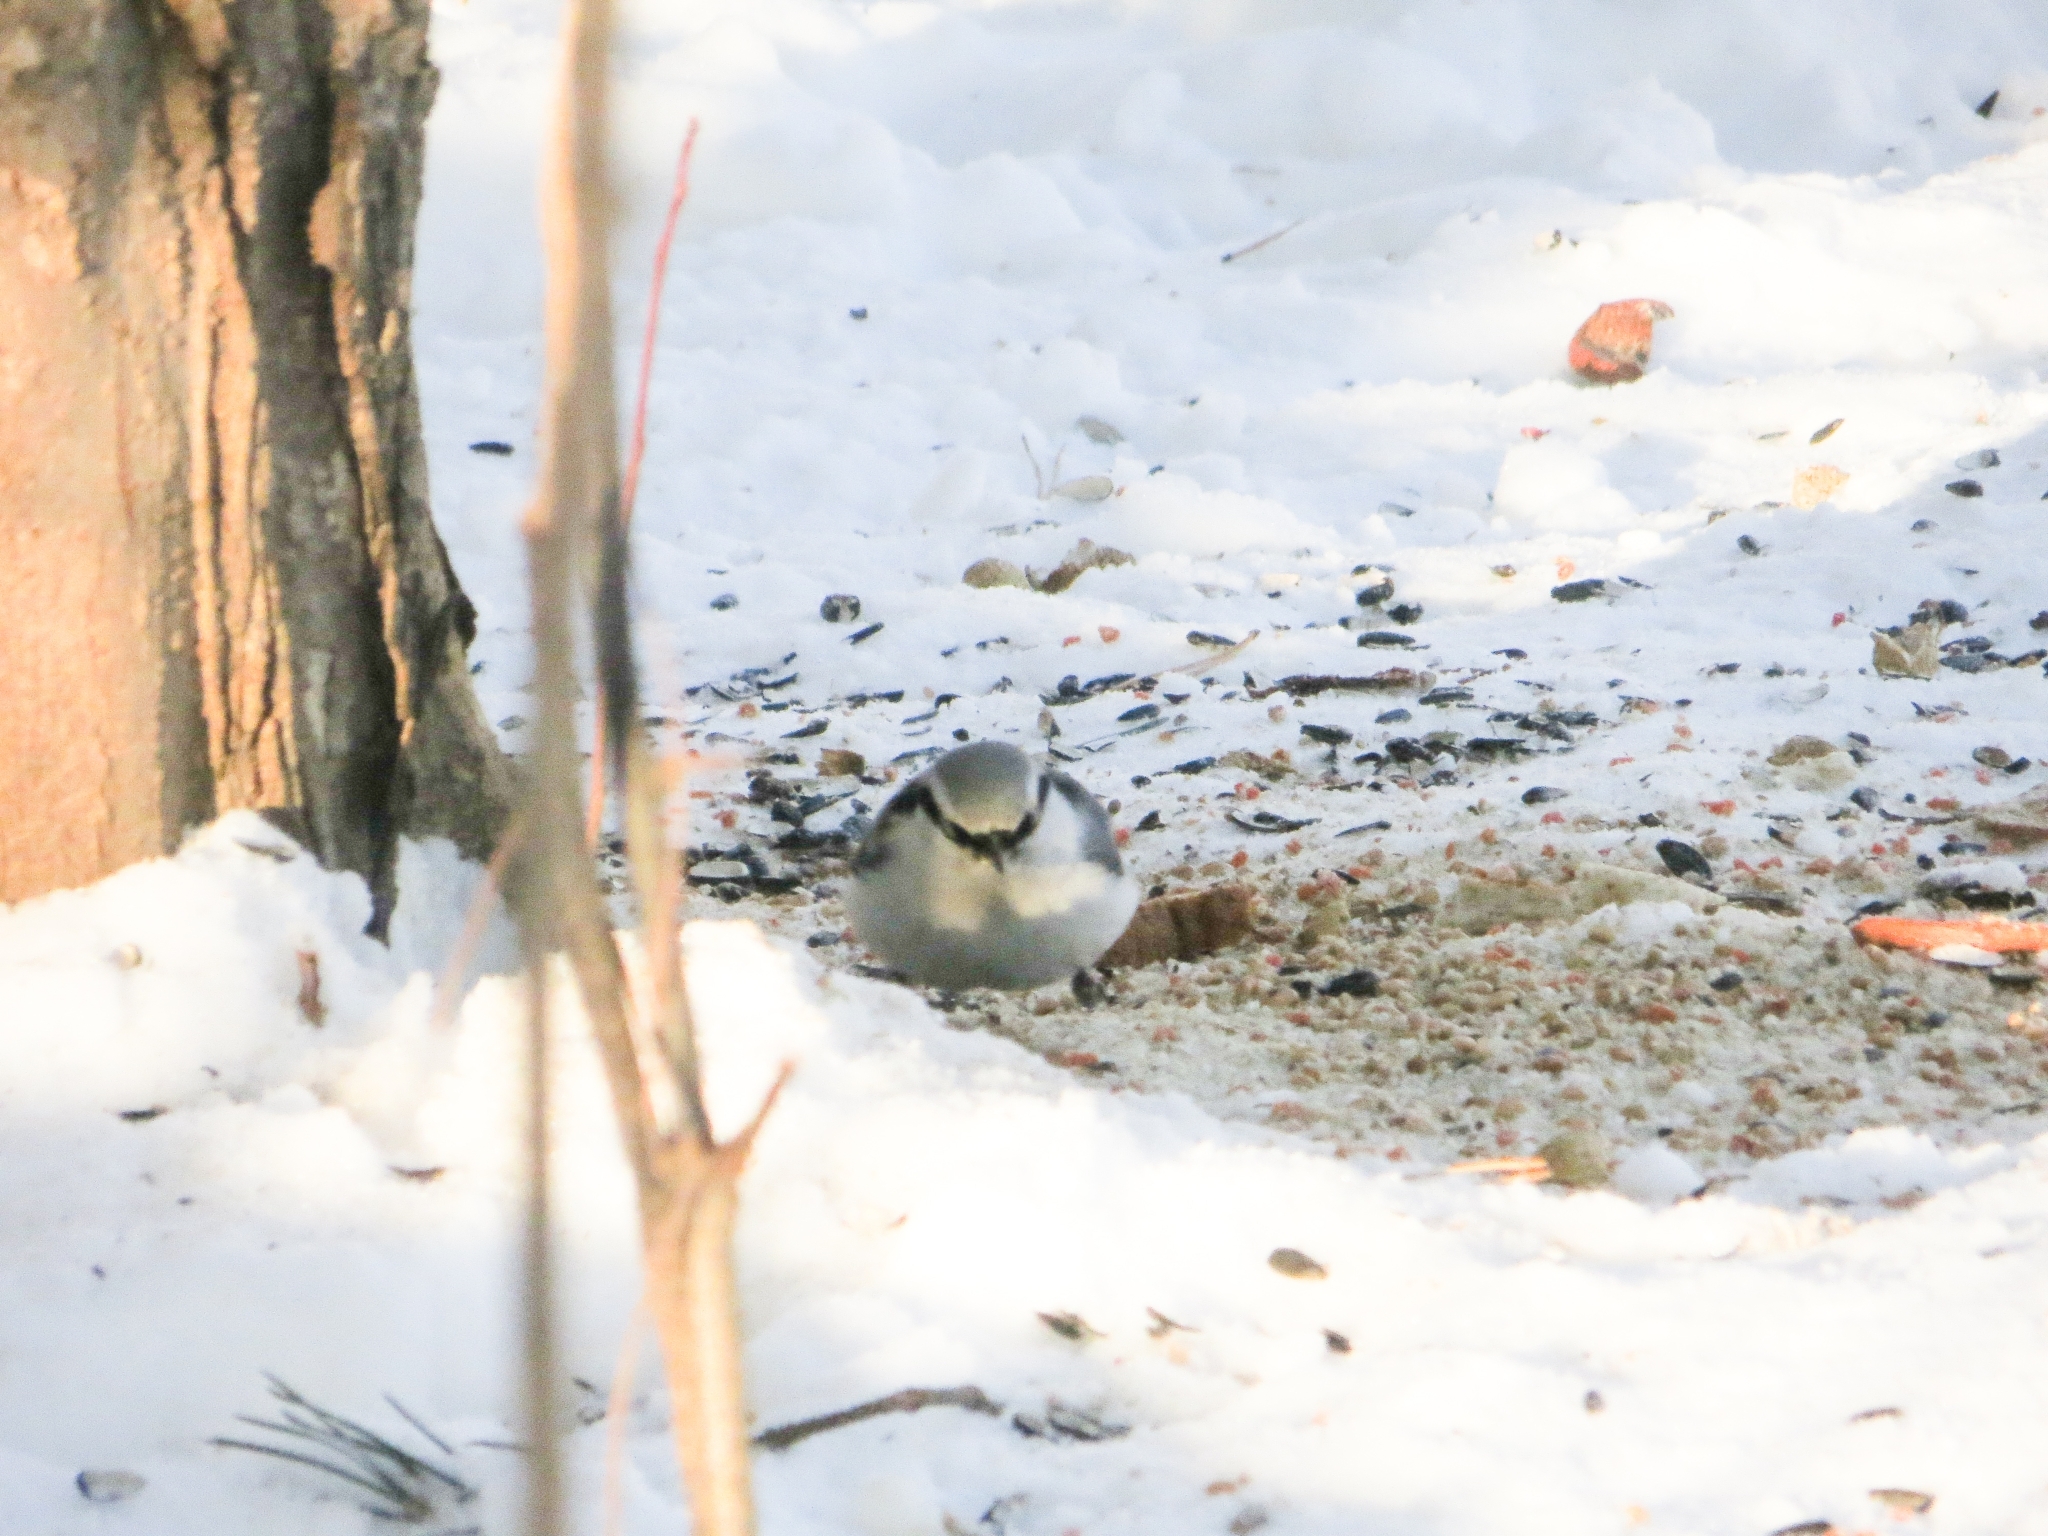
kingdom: Animalia
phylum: Chordata
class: Aves
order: Passeriformes
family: Sittidae
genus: Sitta
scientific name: Sitta europaea
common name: Eurasian nuthatch
